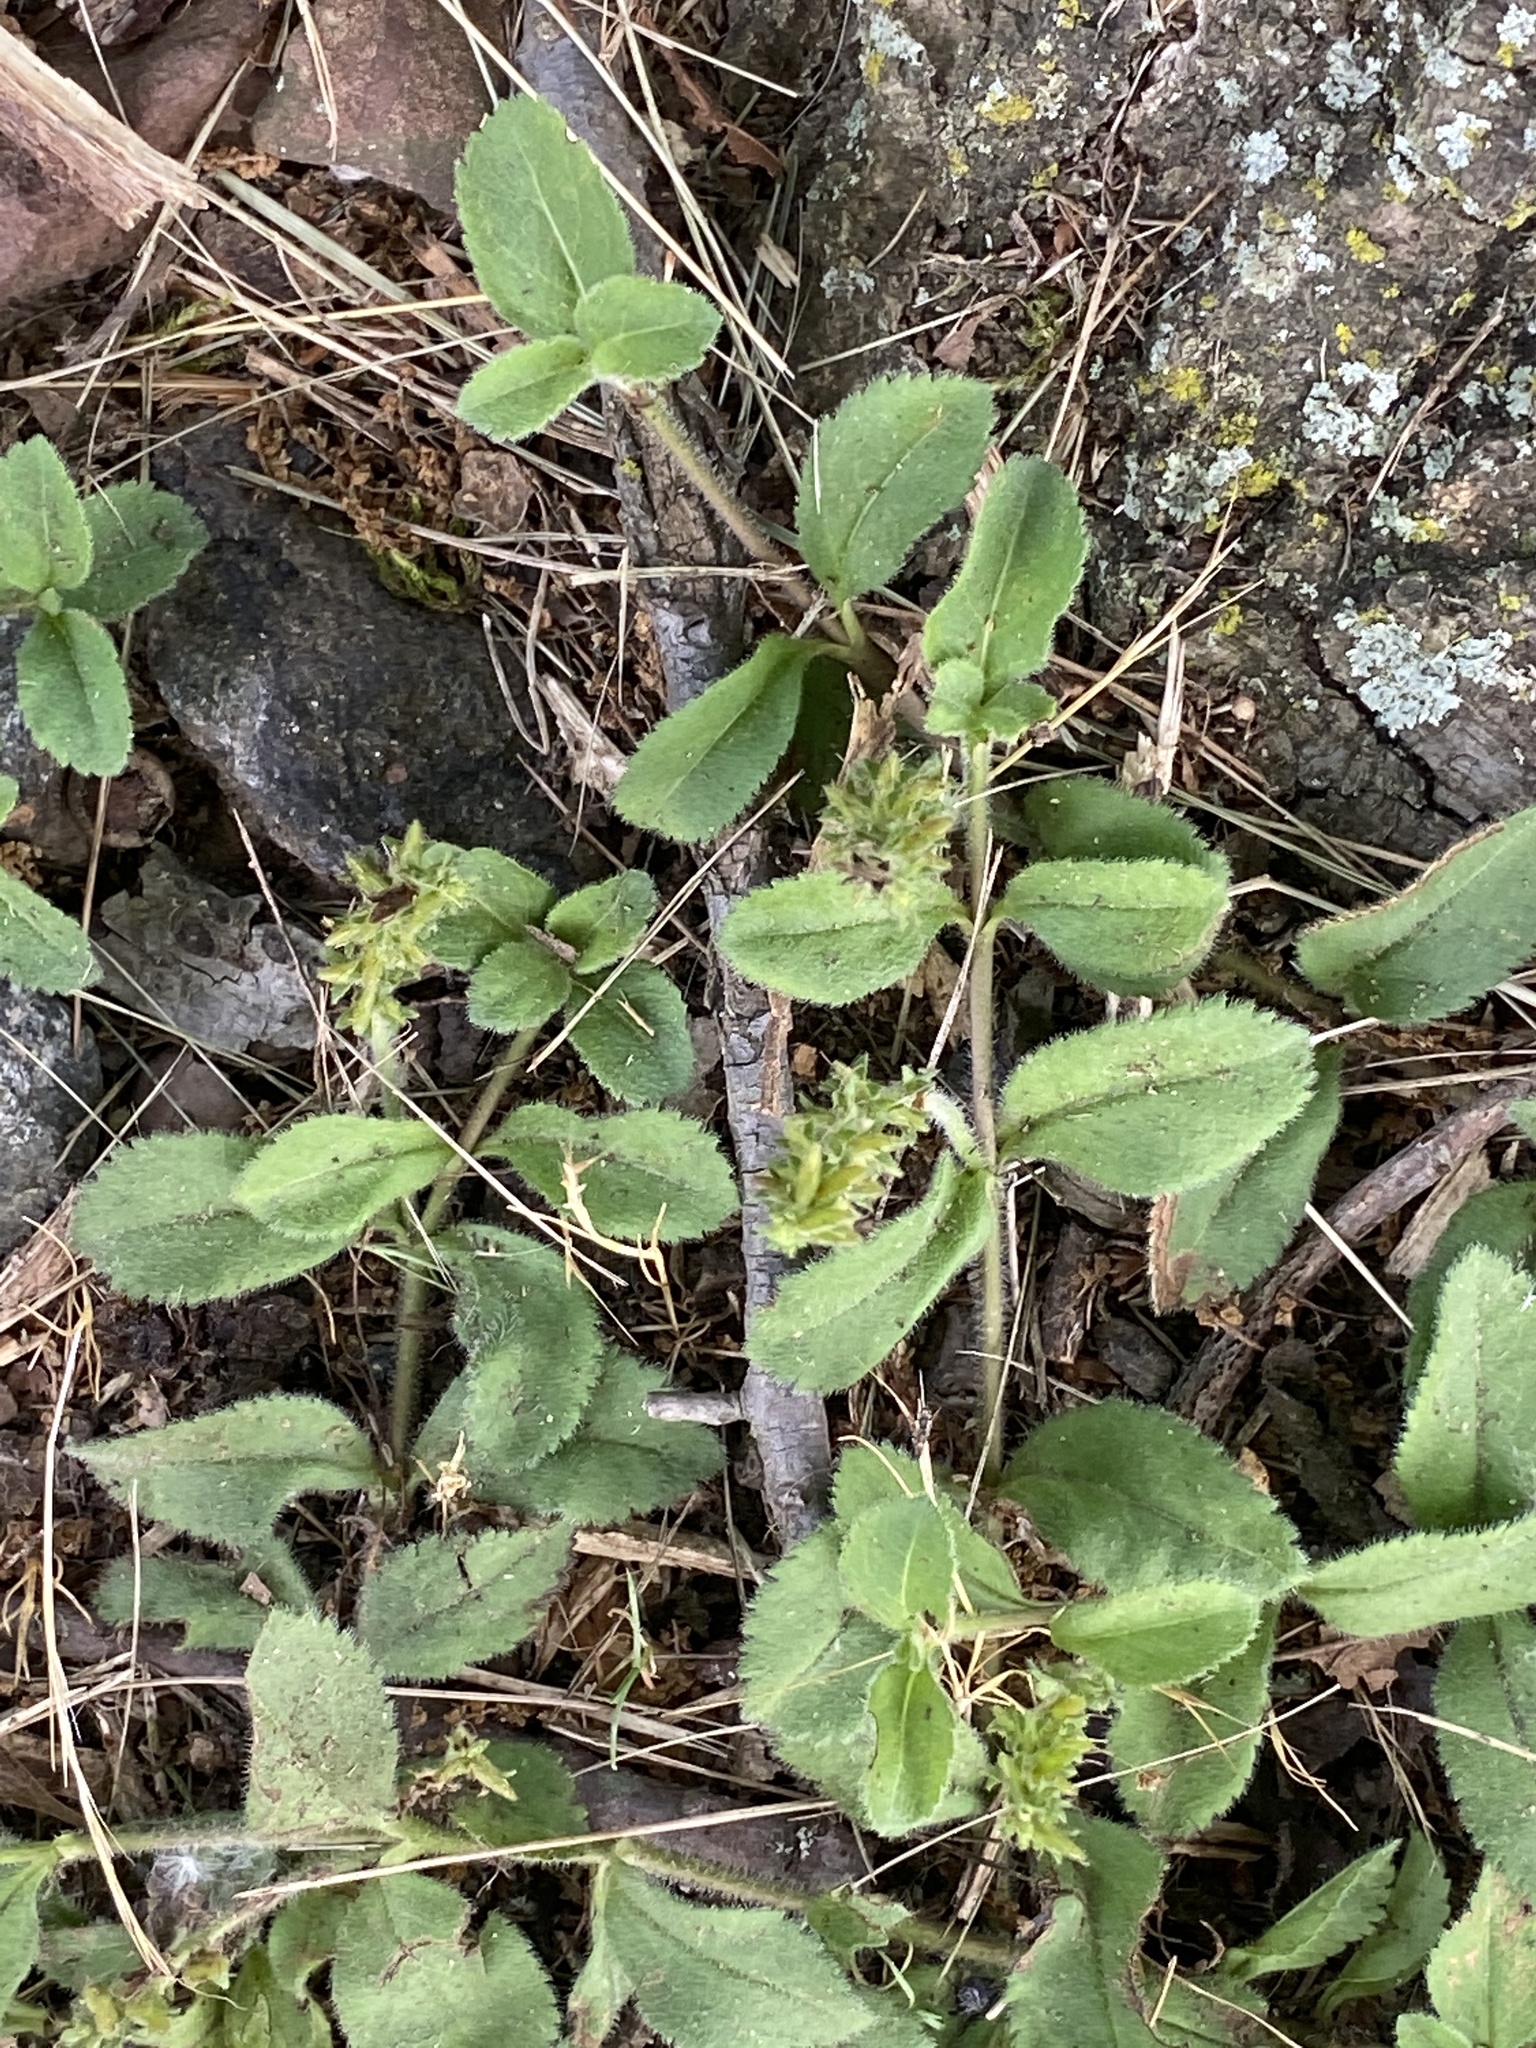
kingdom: Plantae
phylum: Tracheophyta
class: Magnoliopsida
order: Lamiales
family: Plantaginaceae
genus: Veronica
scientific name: Veronica officinalis
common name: Common speedwell
